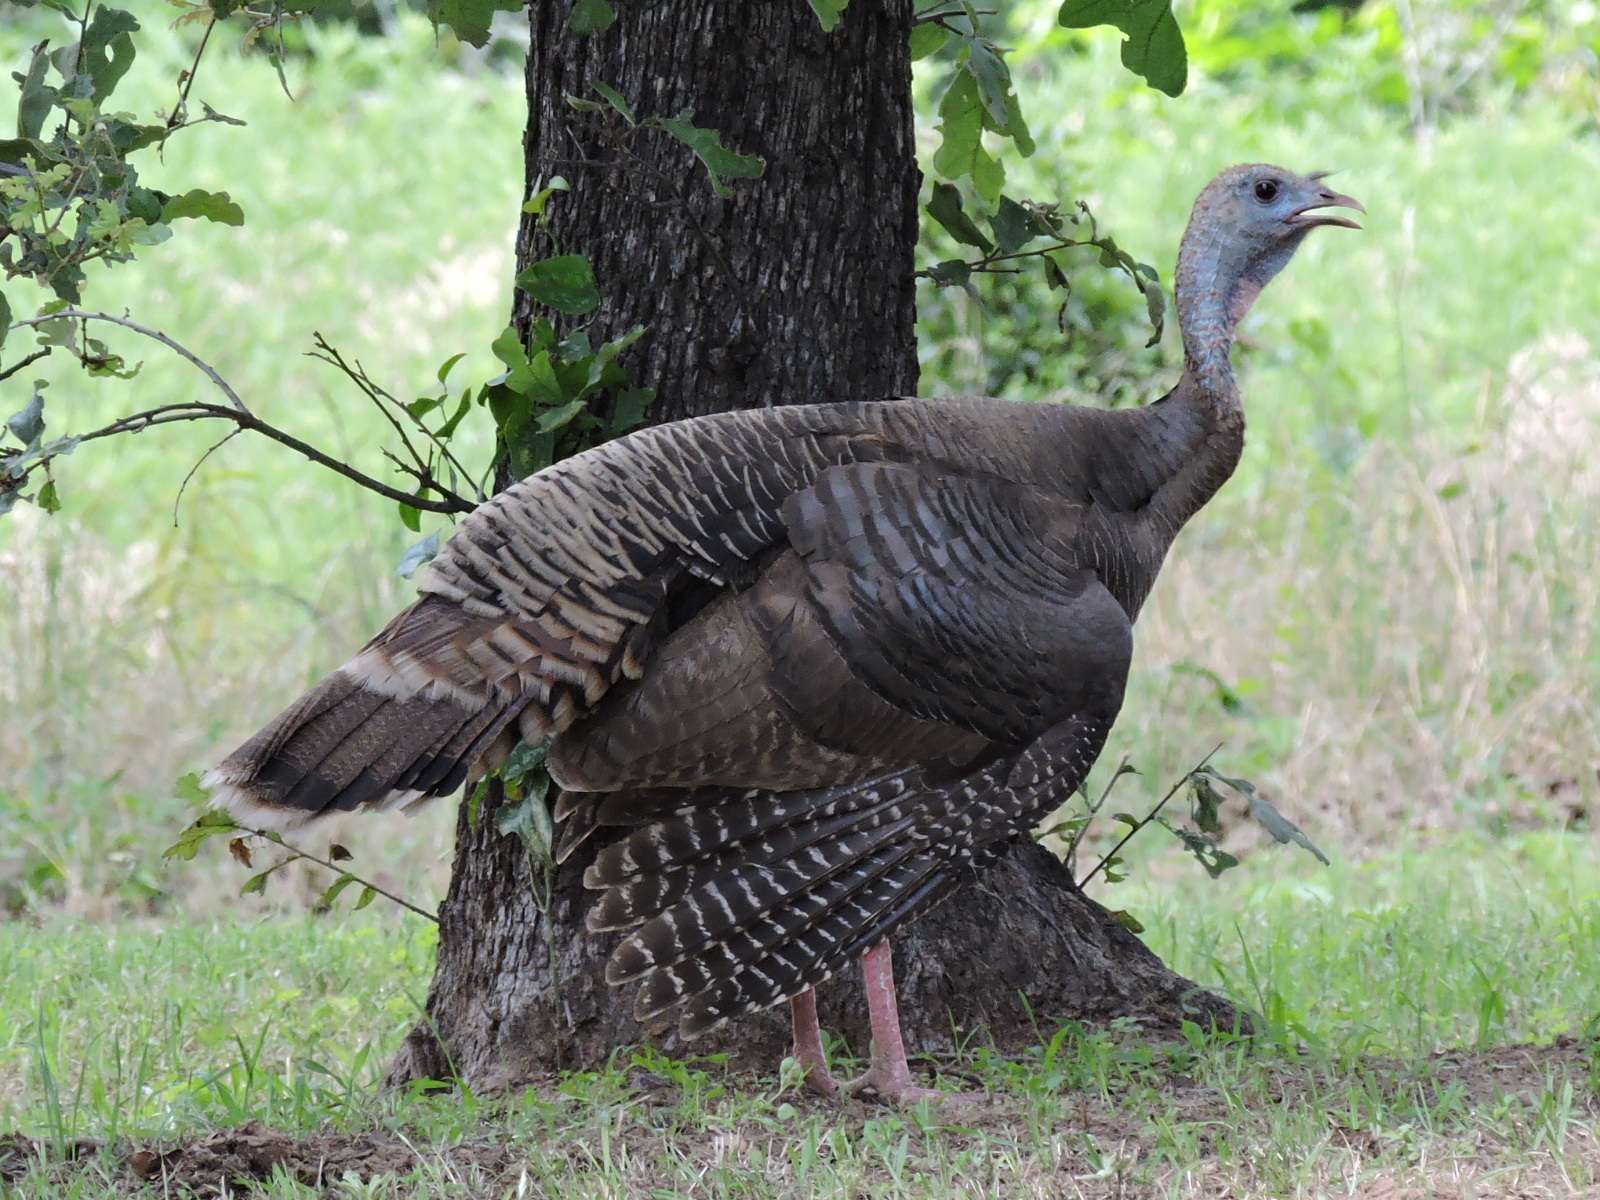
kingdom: Animalia
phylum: Chordata
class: Aves
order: Galliformes
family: Phasianidae
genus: Meleagris
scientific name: Meleagris gallopavo
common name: Wild turkey
